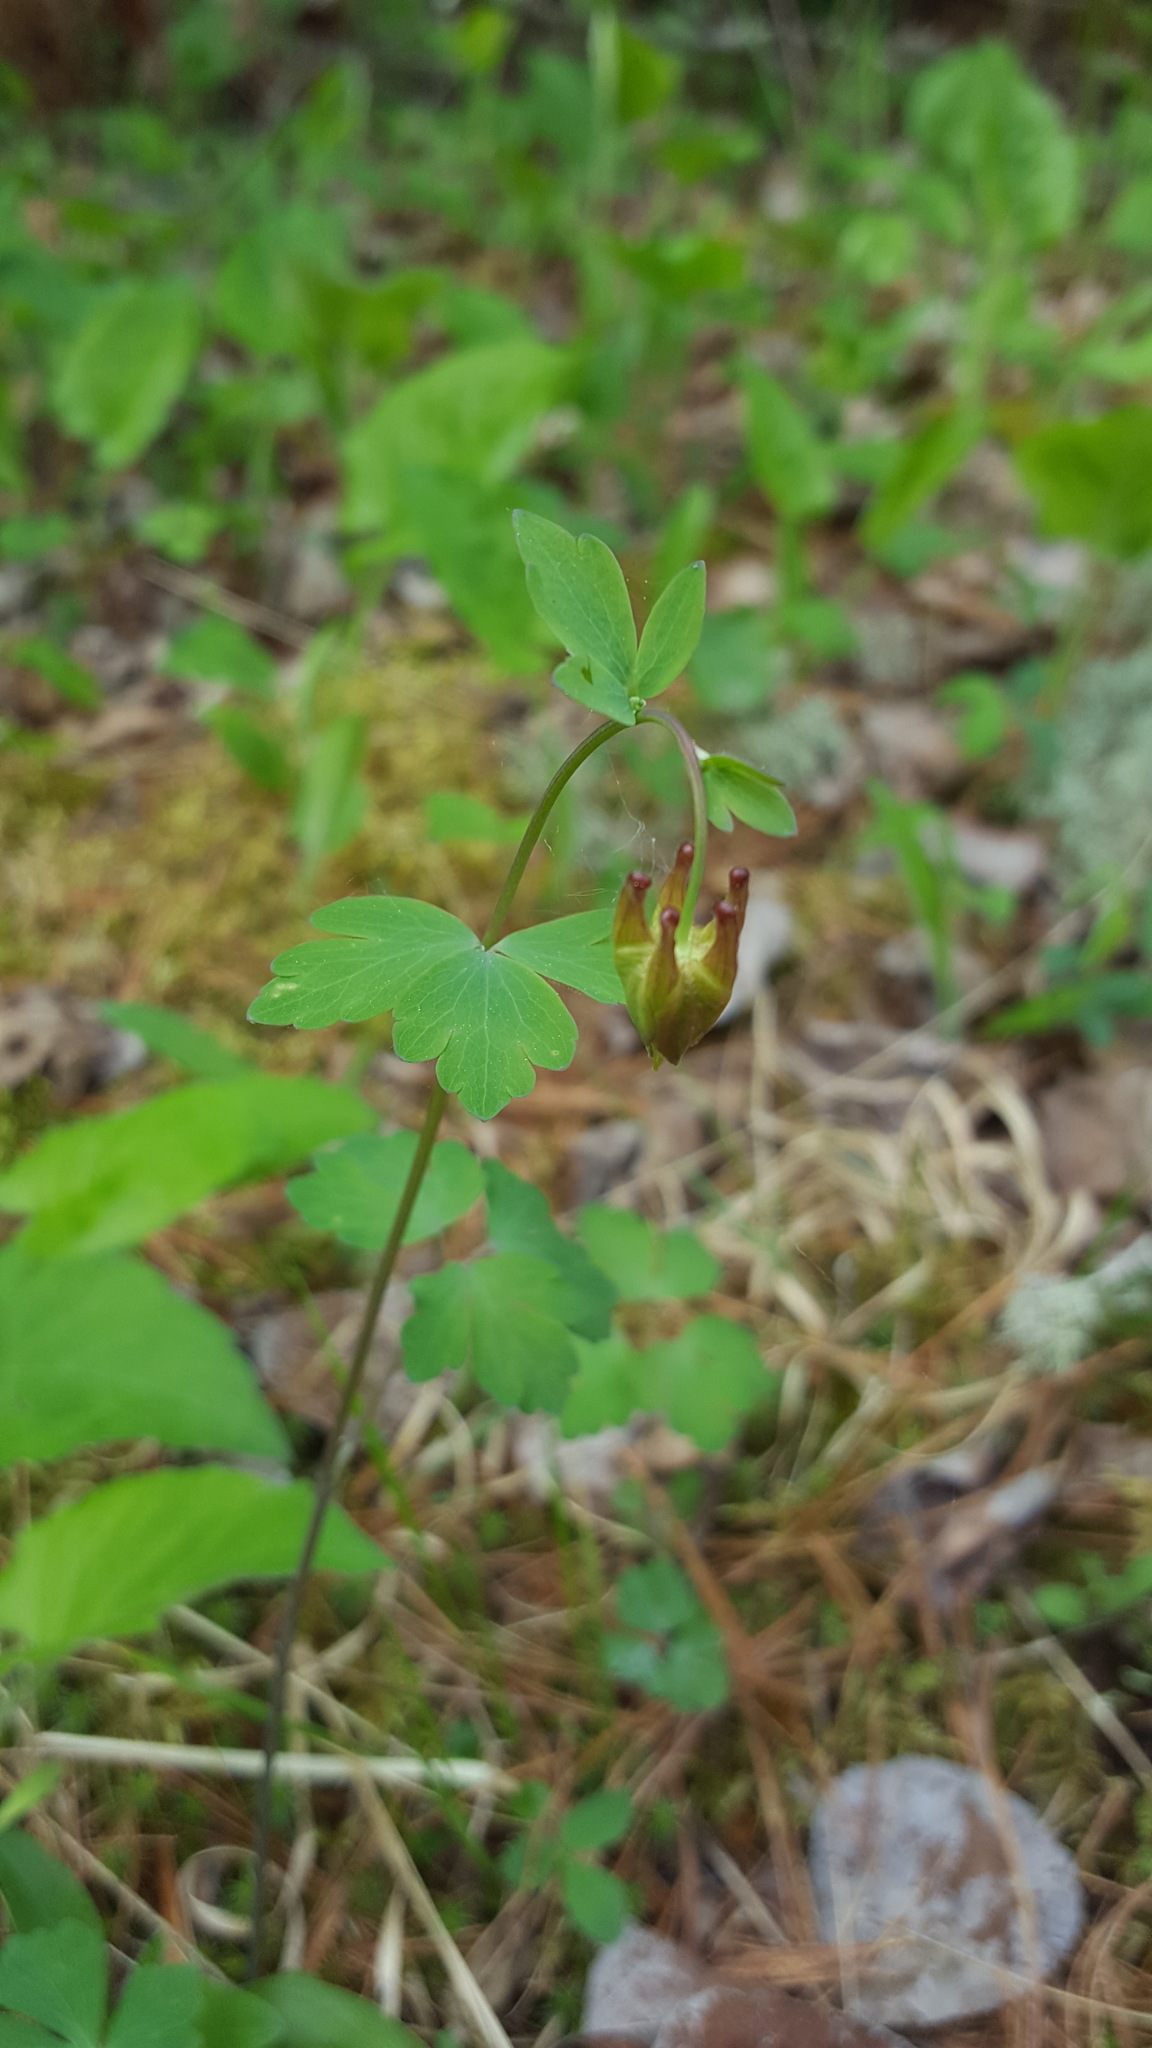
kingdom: Plantae
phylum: Tracheophyta
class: Magnoliopsida
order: Ranunculales
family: Ranunculaceae
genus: Aquilegia
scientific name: Aquilegia canadensis
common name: American columbine
